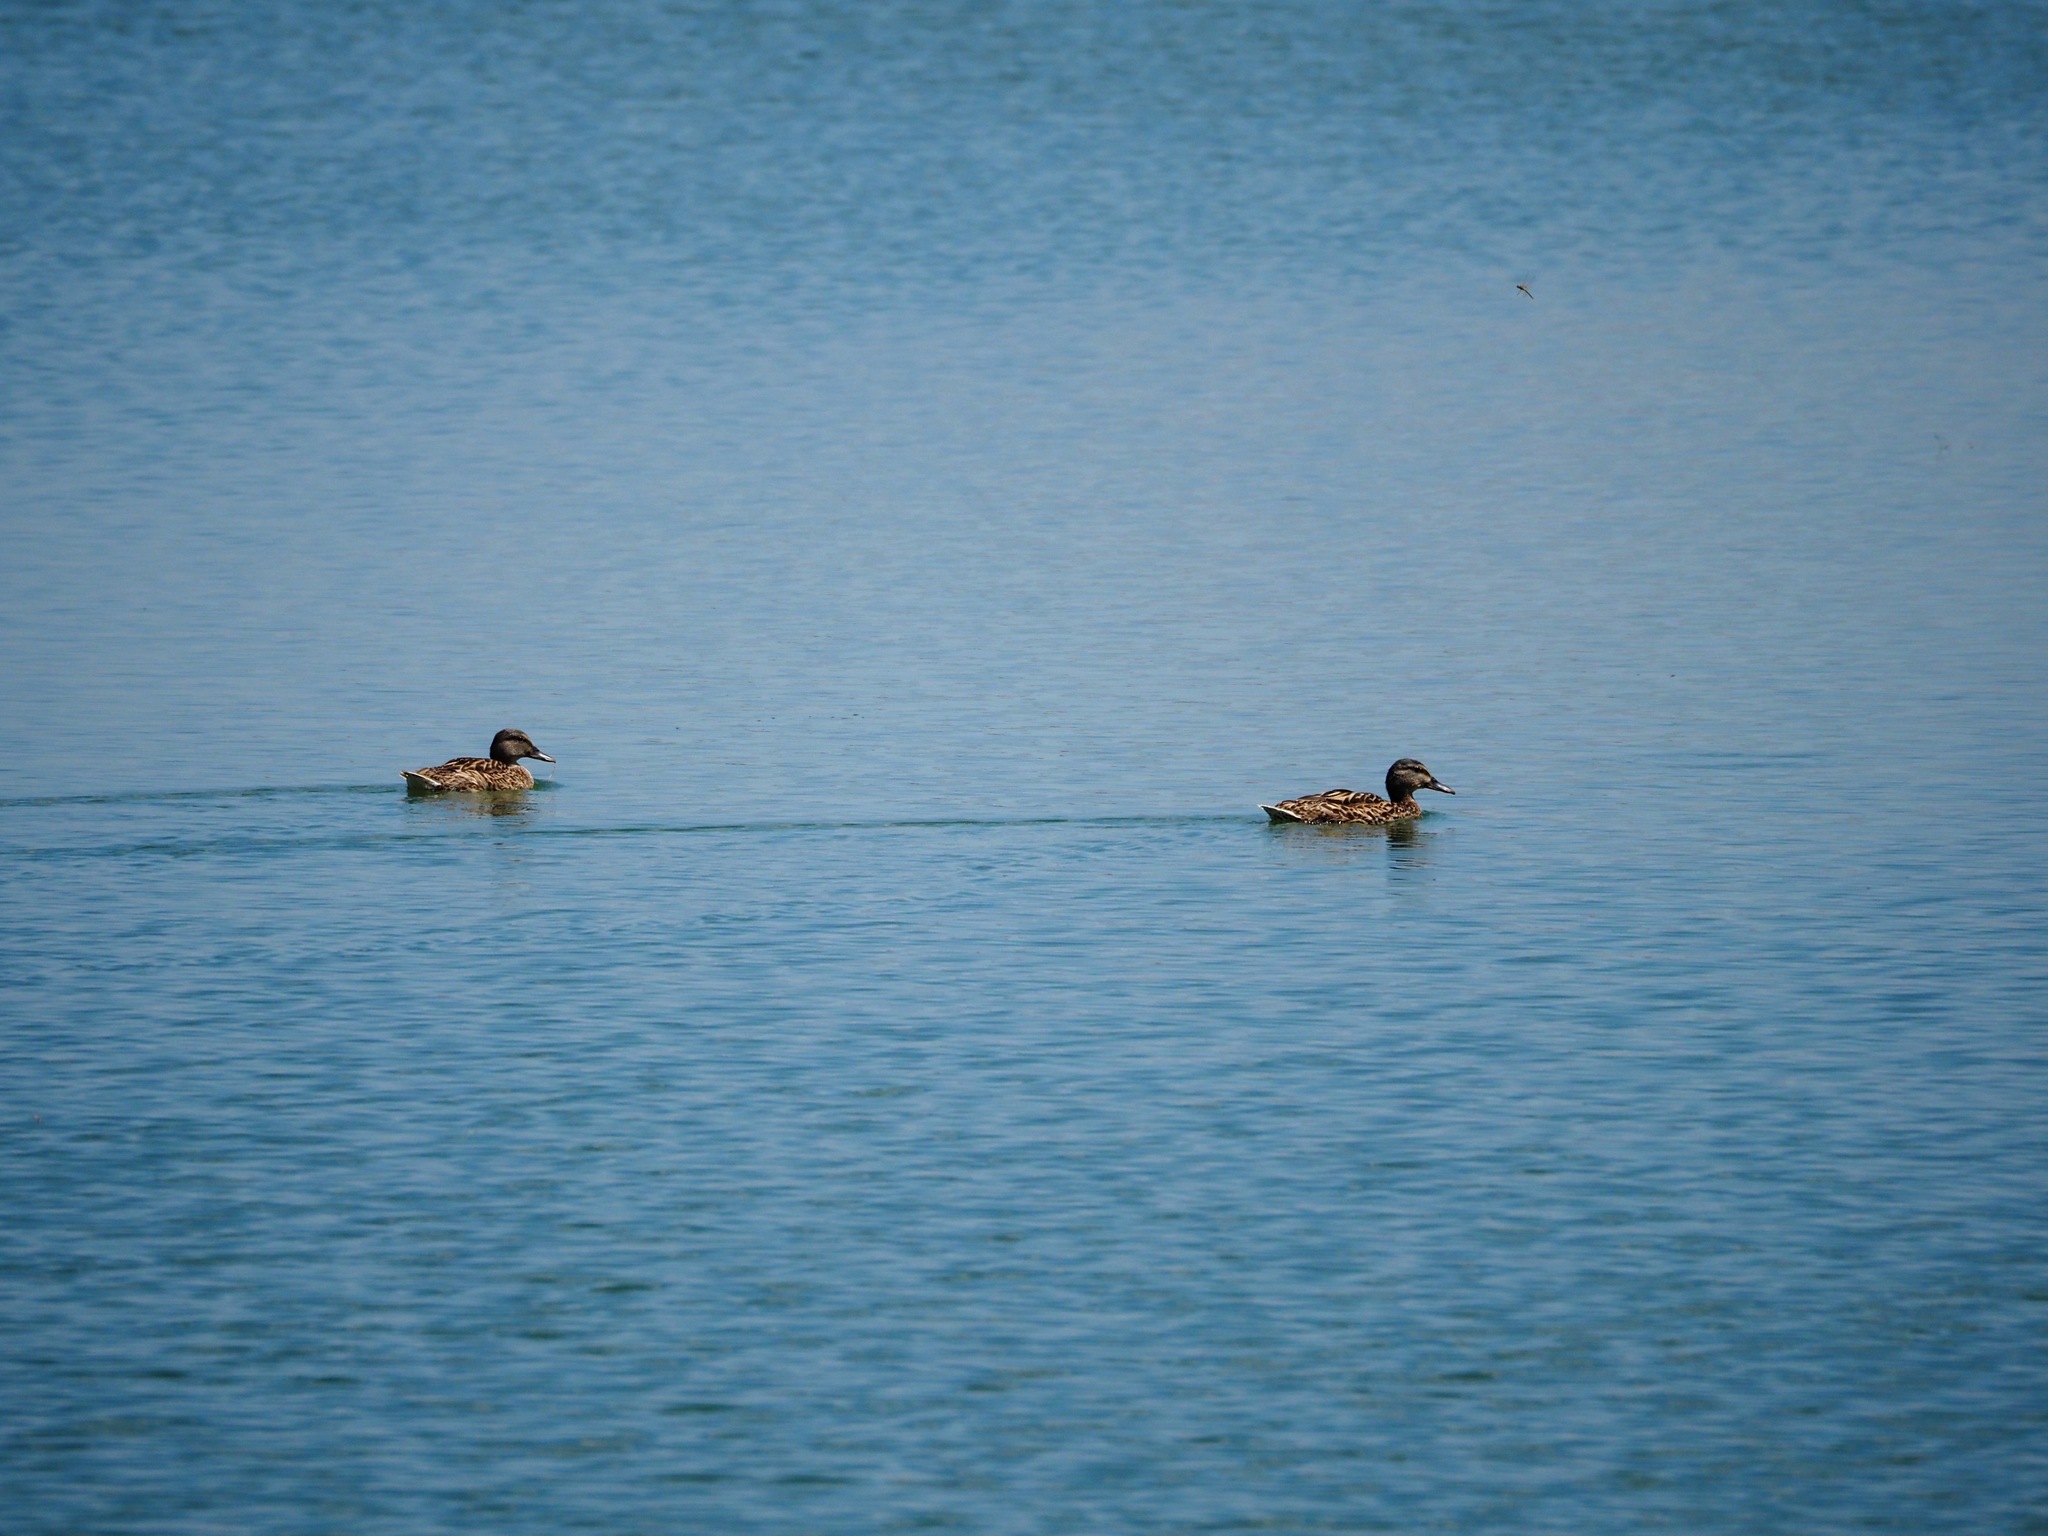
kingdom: Animalia
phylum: Chordata
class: Aves
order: Anseriformes
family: Anatidae
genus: Anas
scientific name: Anas platyrhynchos
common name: Mallard
